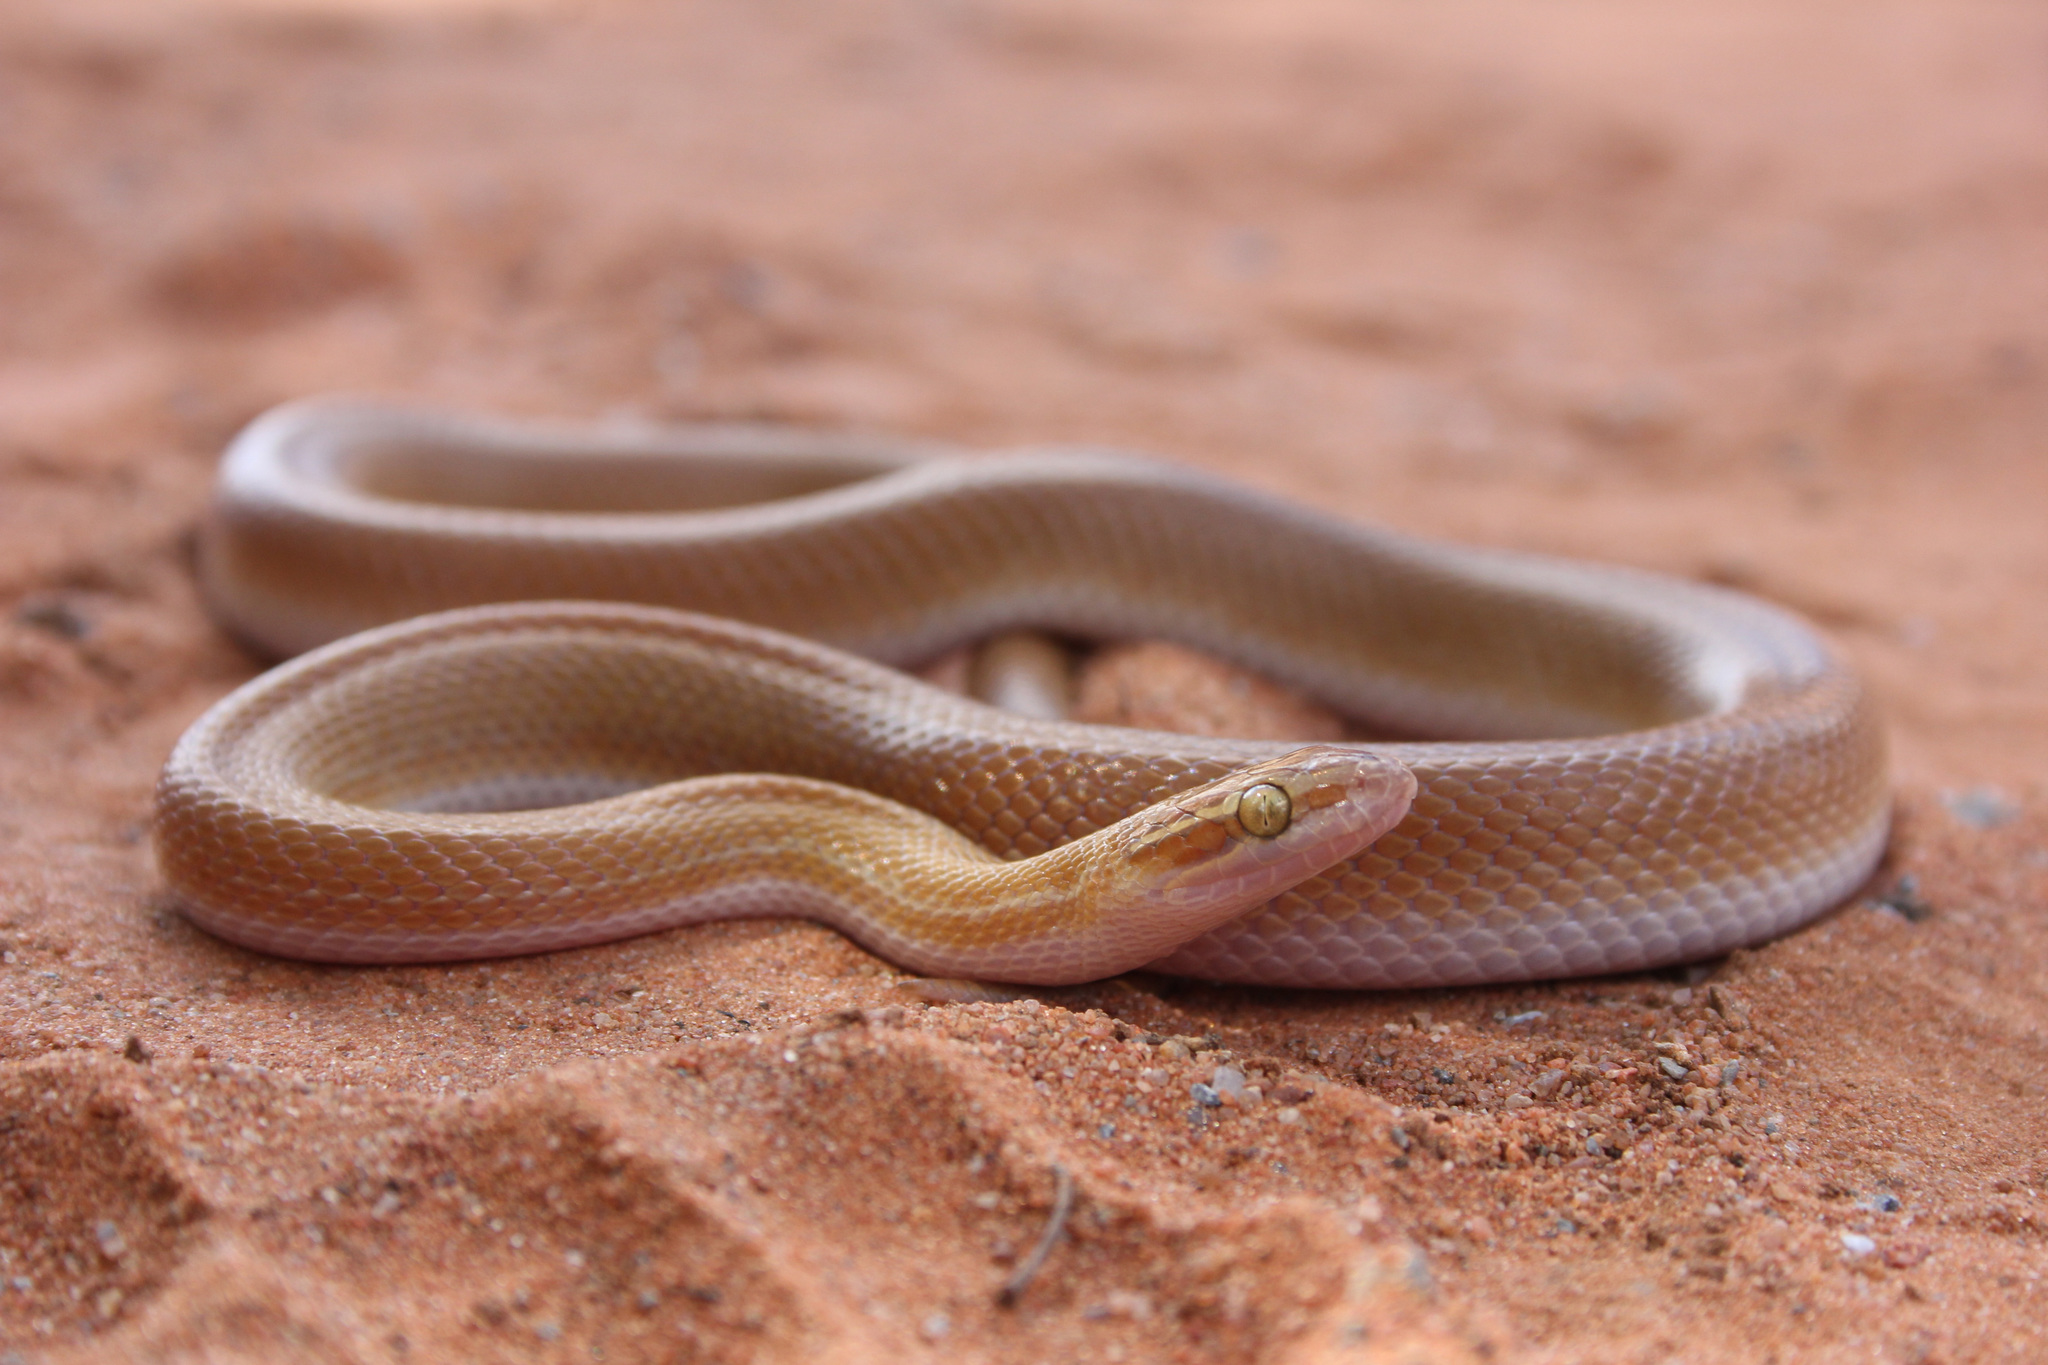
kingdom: Animalia
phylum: Chordata
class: Squamata
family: Lamprophiidae
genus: Boaedon
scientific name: Boaedon capensis
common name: Brown house snake
